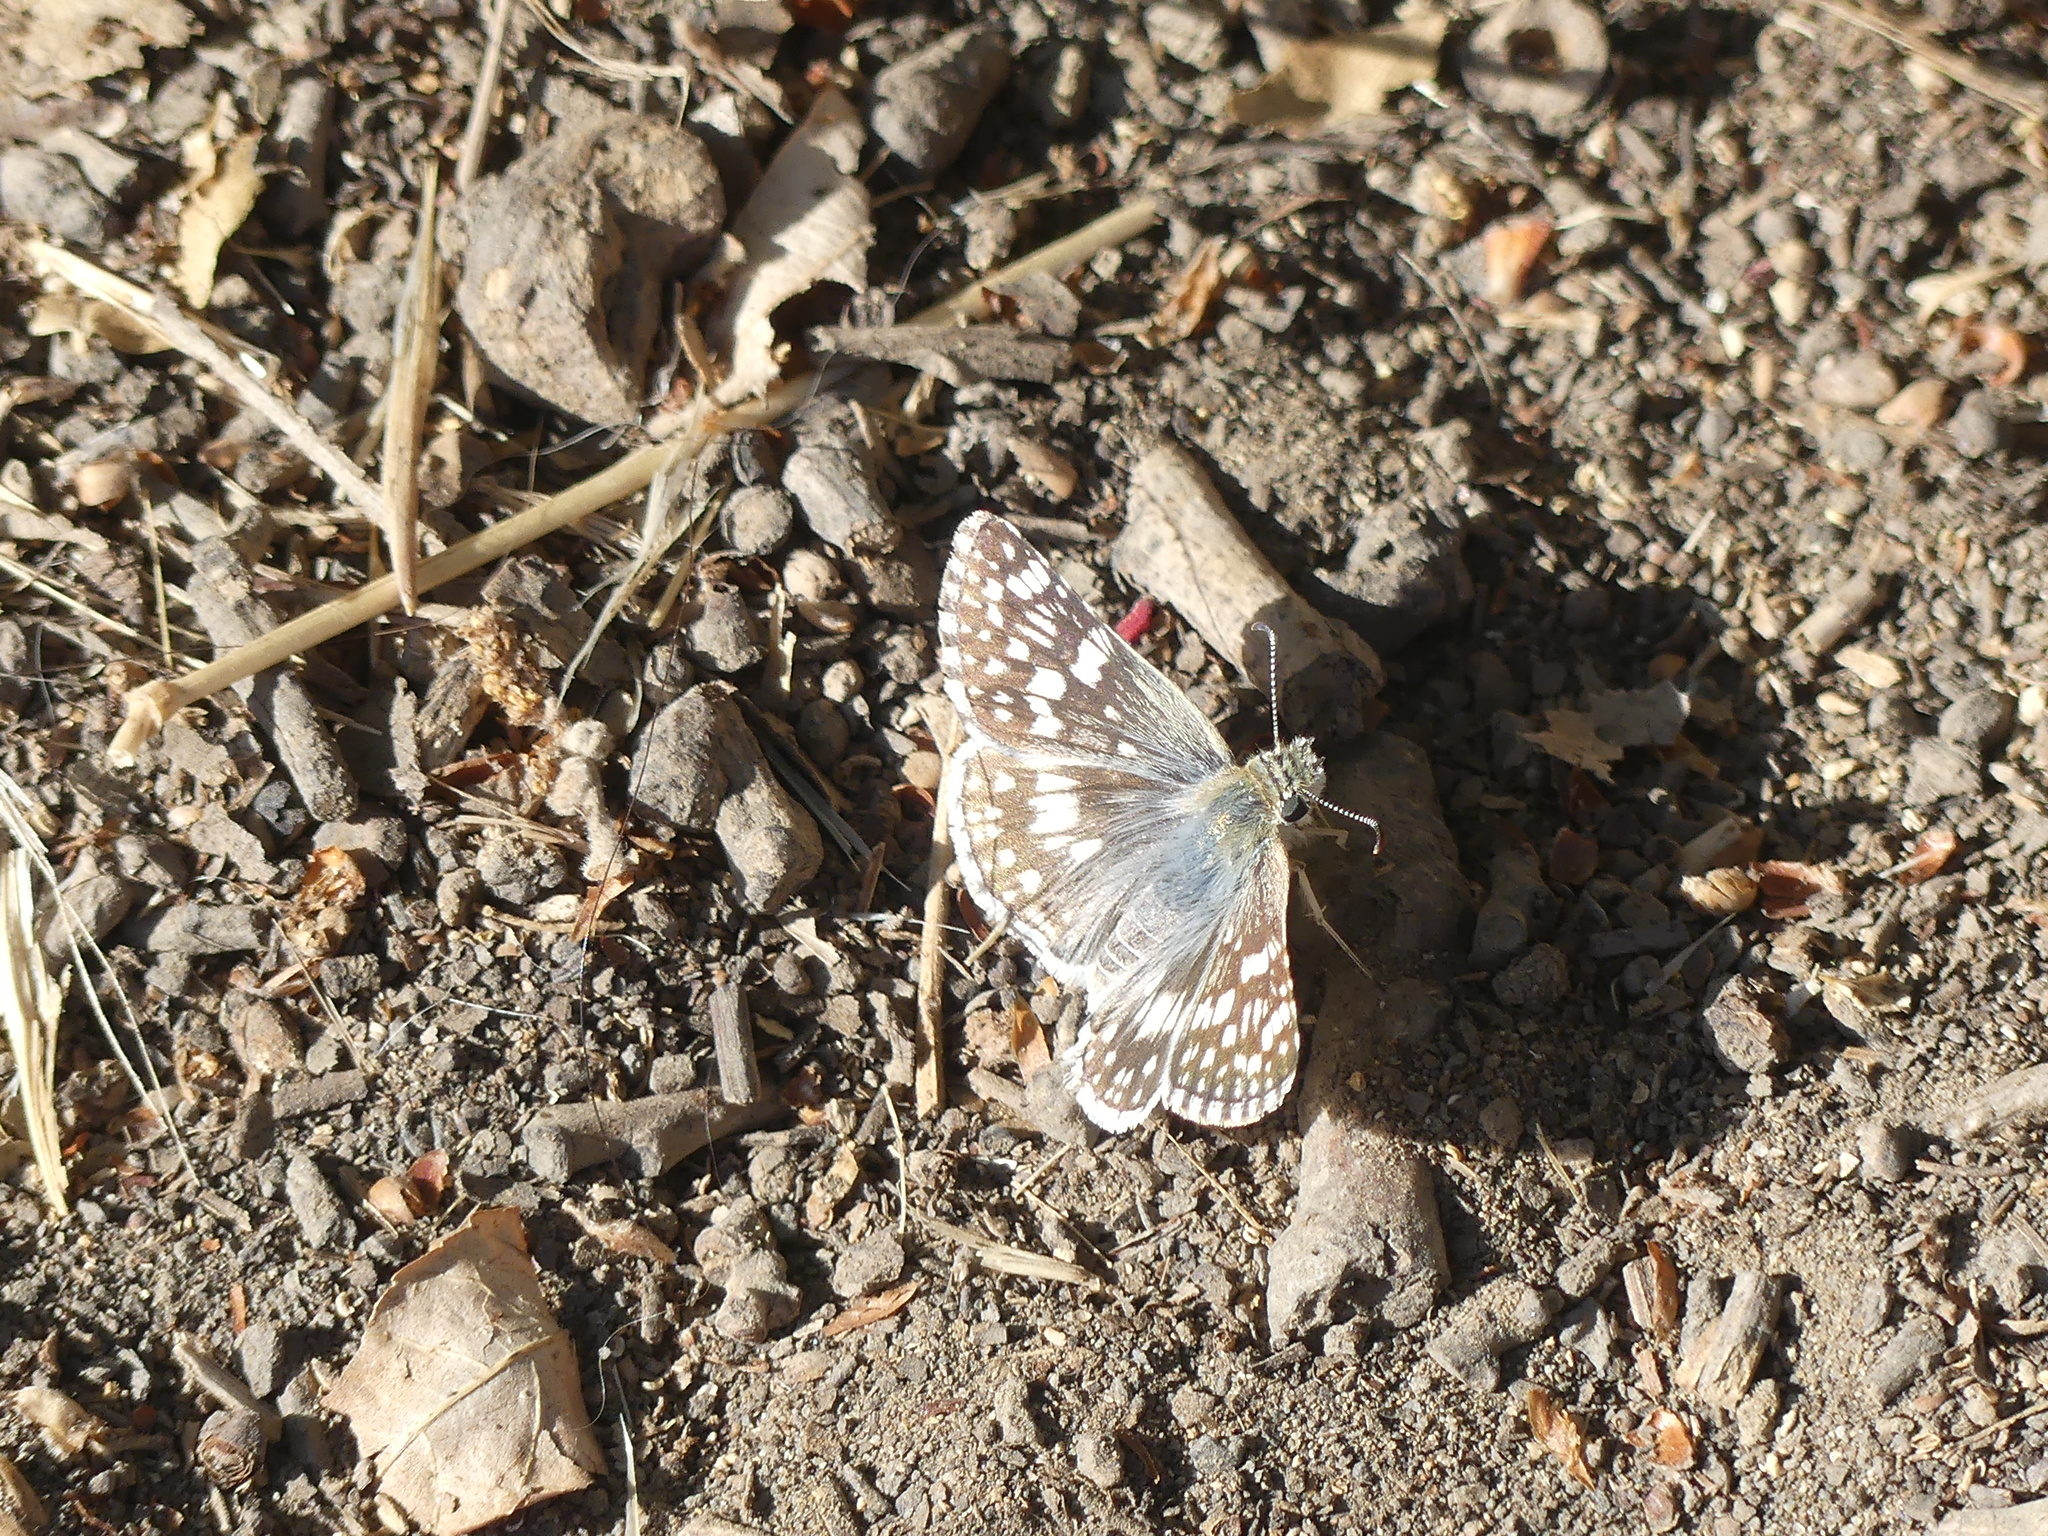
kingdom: Animalia
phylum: Arthropoda
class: Insecta
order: Lepidoptera
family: Hesperiidae
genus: Burnsius
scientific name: Burnsius communis
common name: Common checkered-skipper
